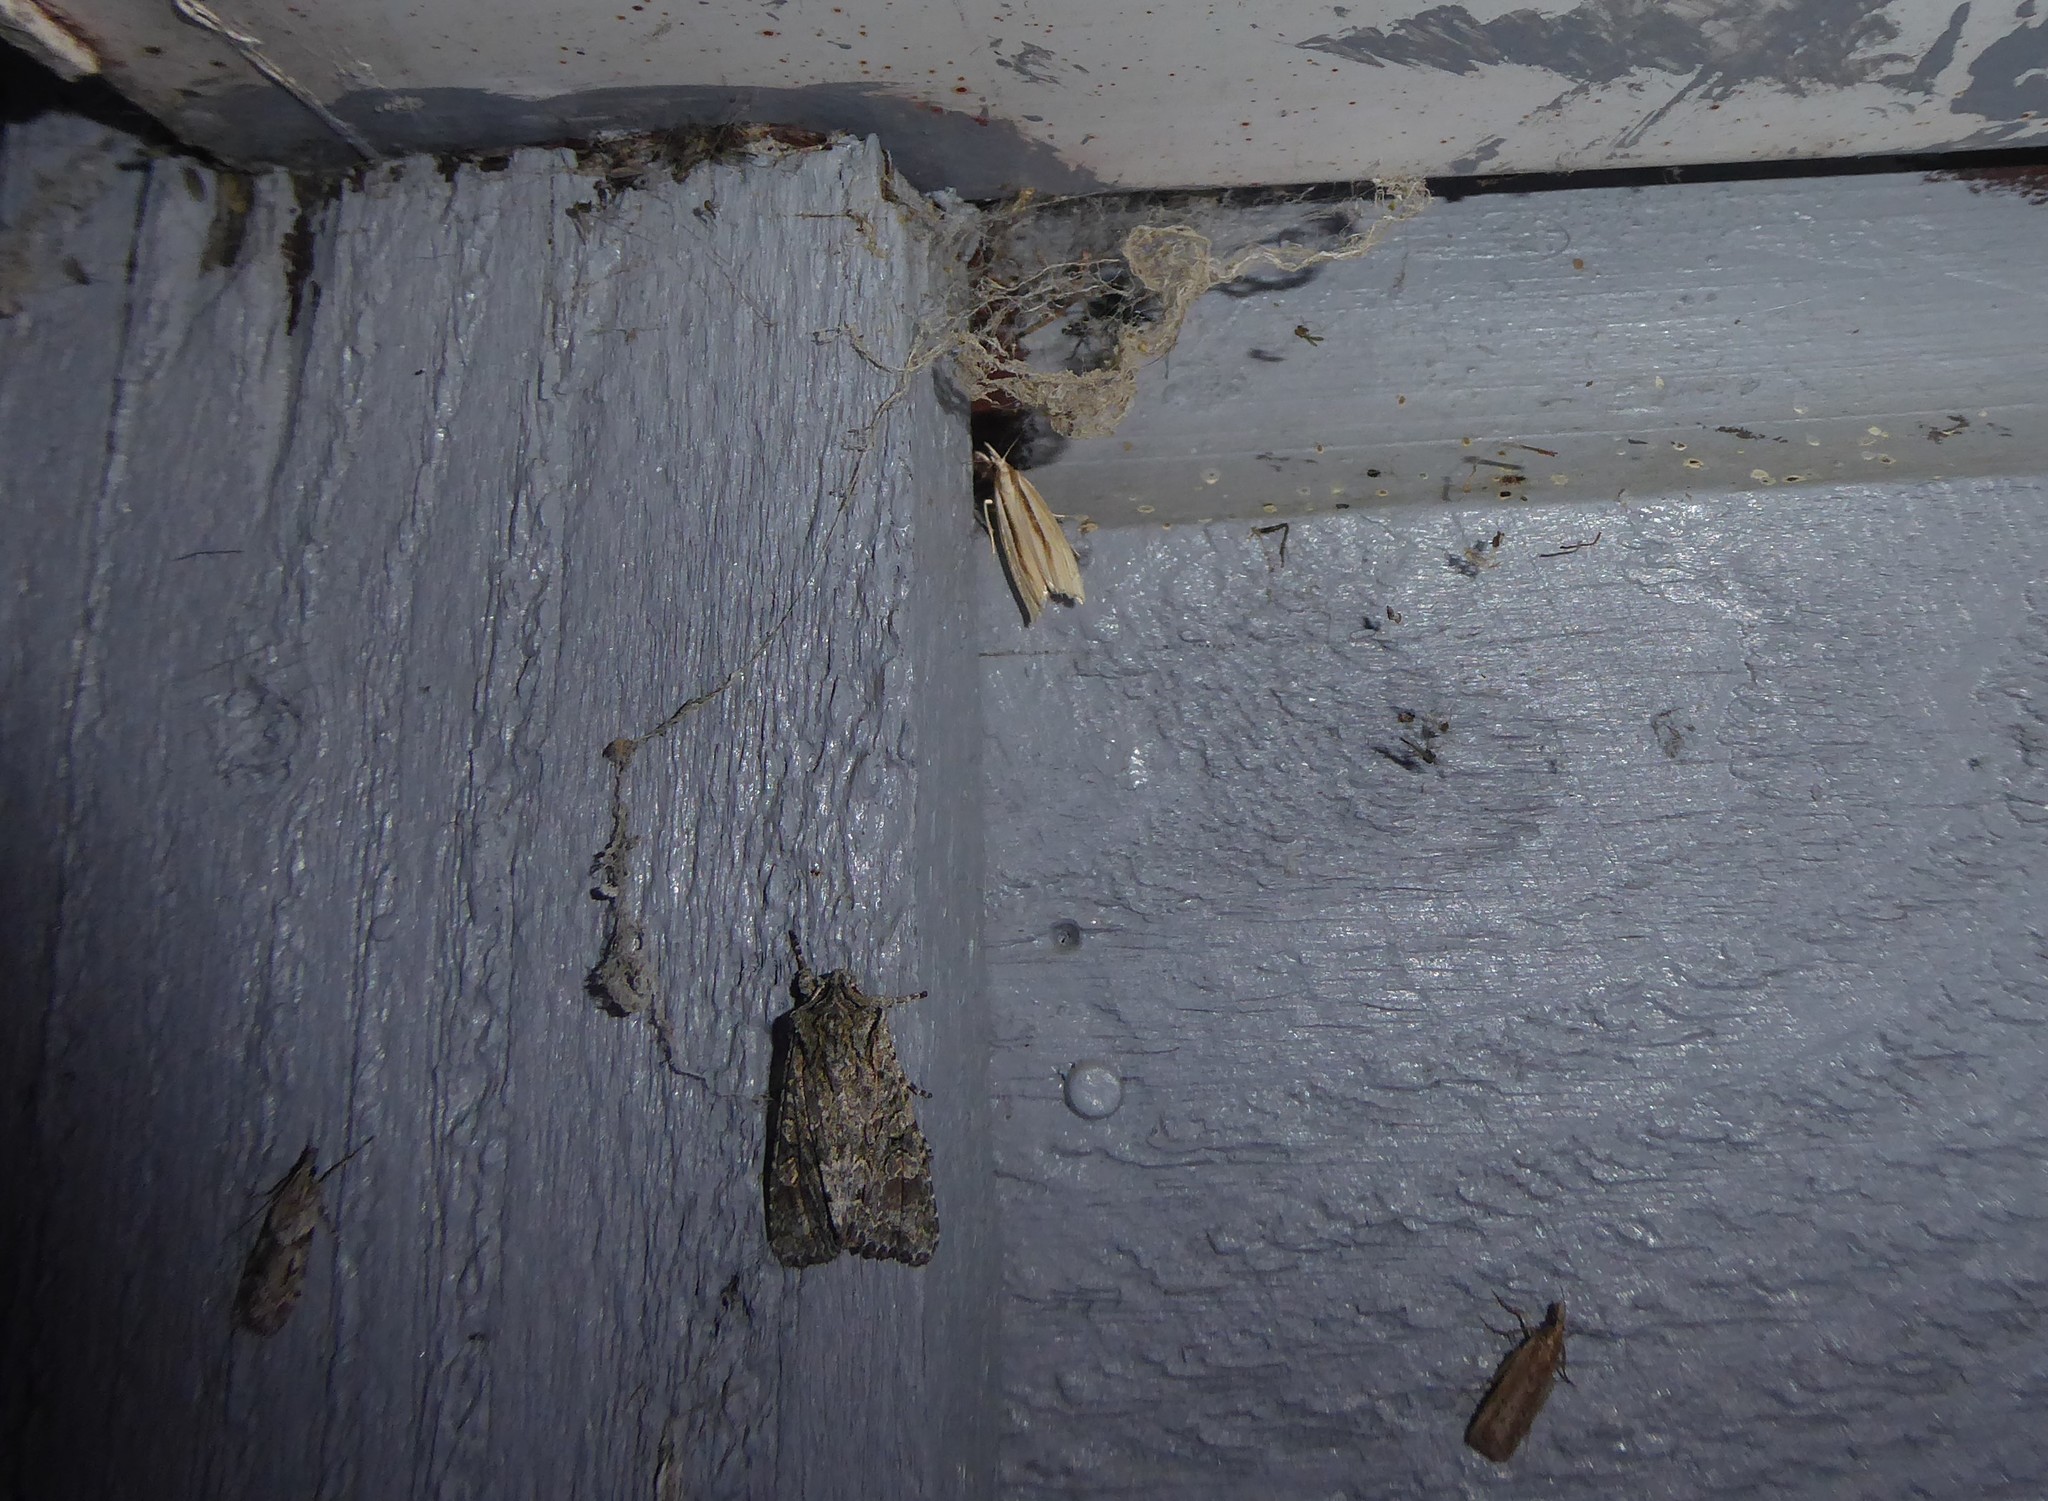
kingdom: Animalia
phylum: Arthropoda
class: Insecta
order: Lepidoptera
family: Crambidae
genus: Orocrambus
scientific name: Orocrambus ramosellus
